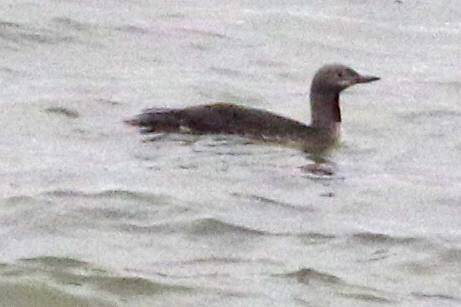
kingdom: Animalia
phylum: Chordata
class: Aves
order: Gaviiformes
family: Gaviidae
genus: Gavia
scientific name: Gavia stellata
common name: Red-throated loon
